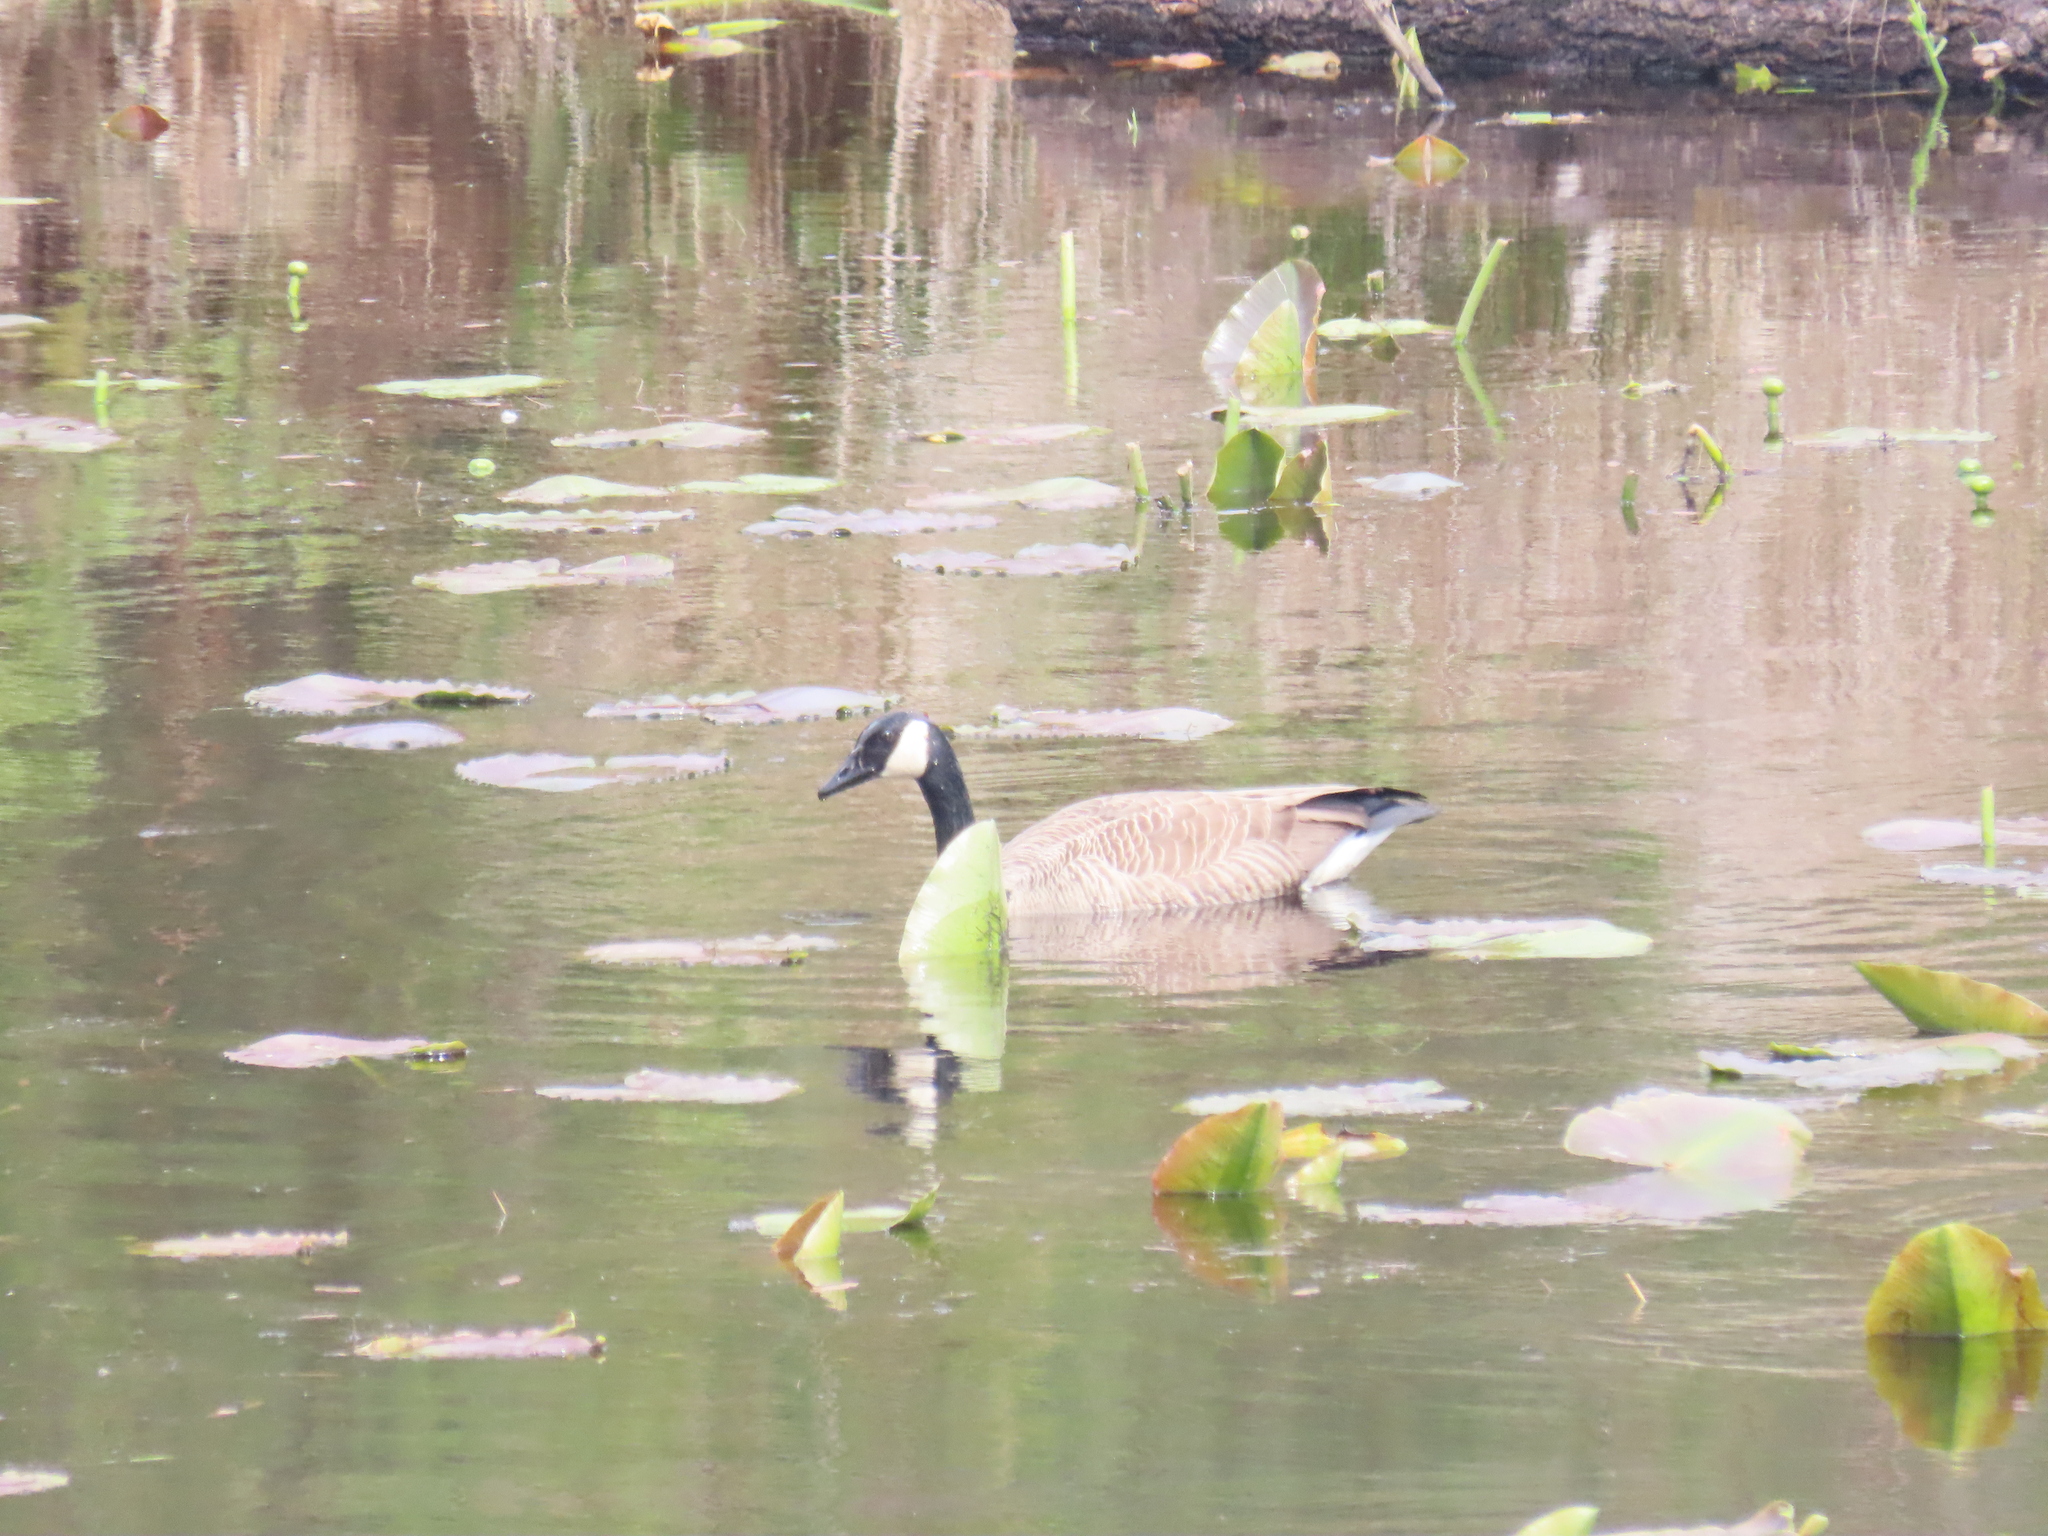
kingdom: Animalia
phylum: Chordata
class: Aves
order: Anseriformes
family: Anatidae
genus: Branta
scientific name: Branta canadensis
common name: Canada goose
